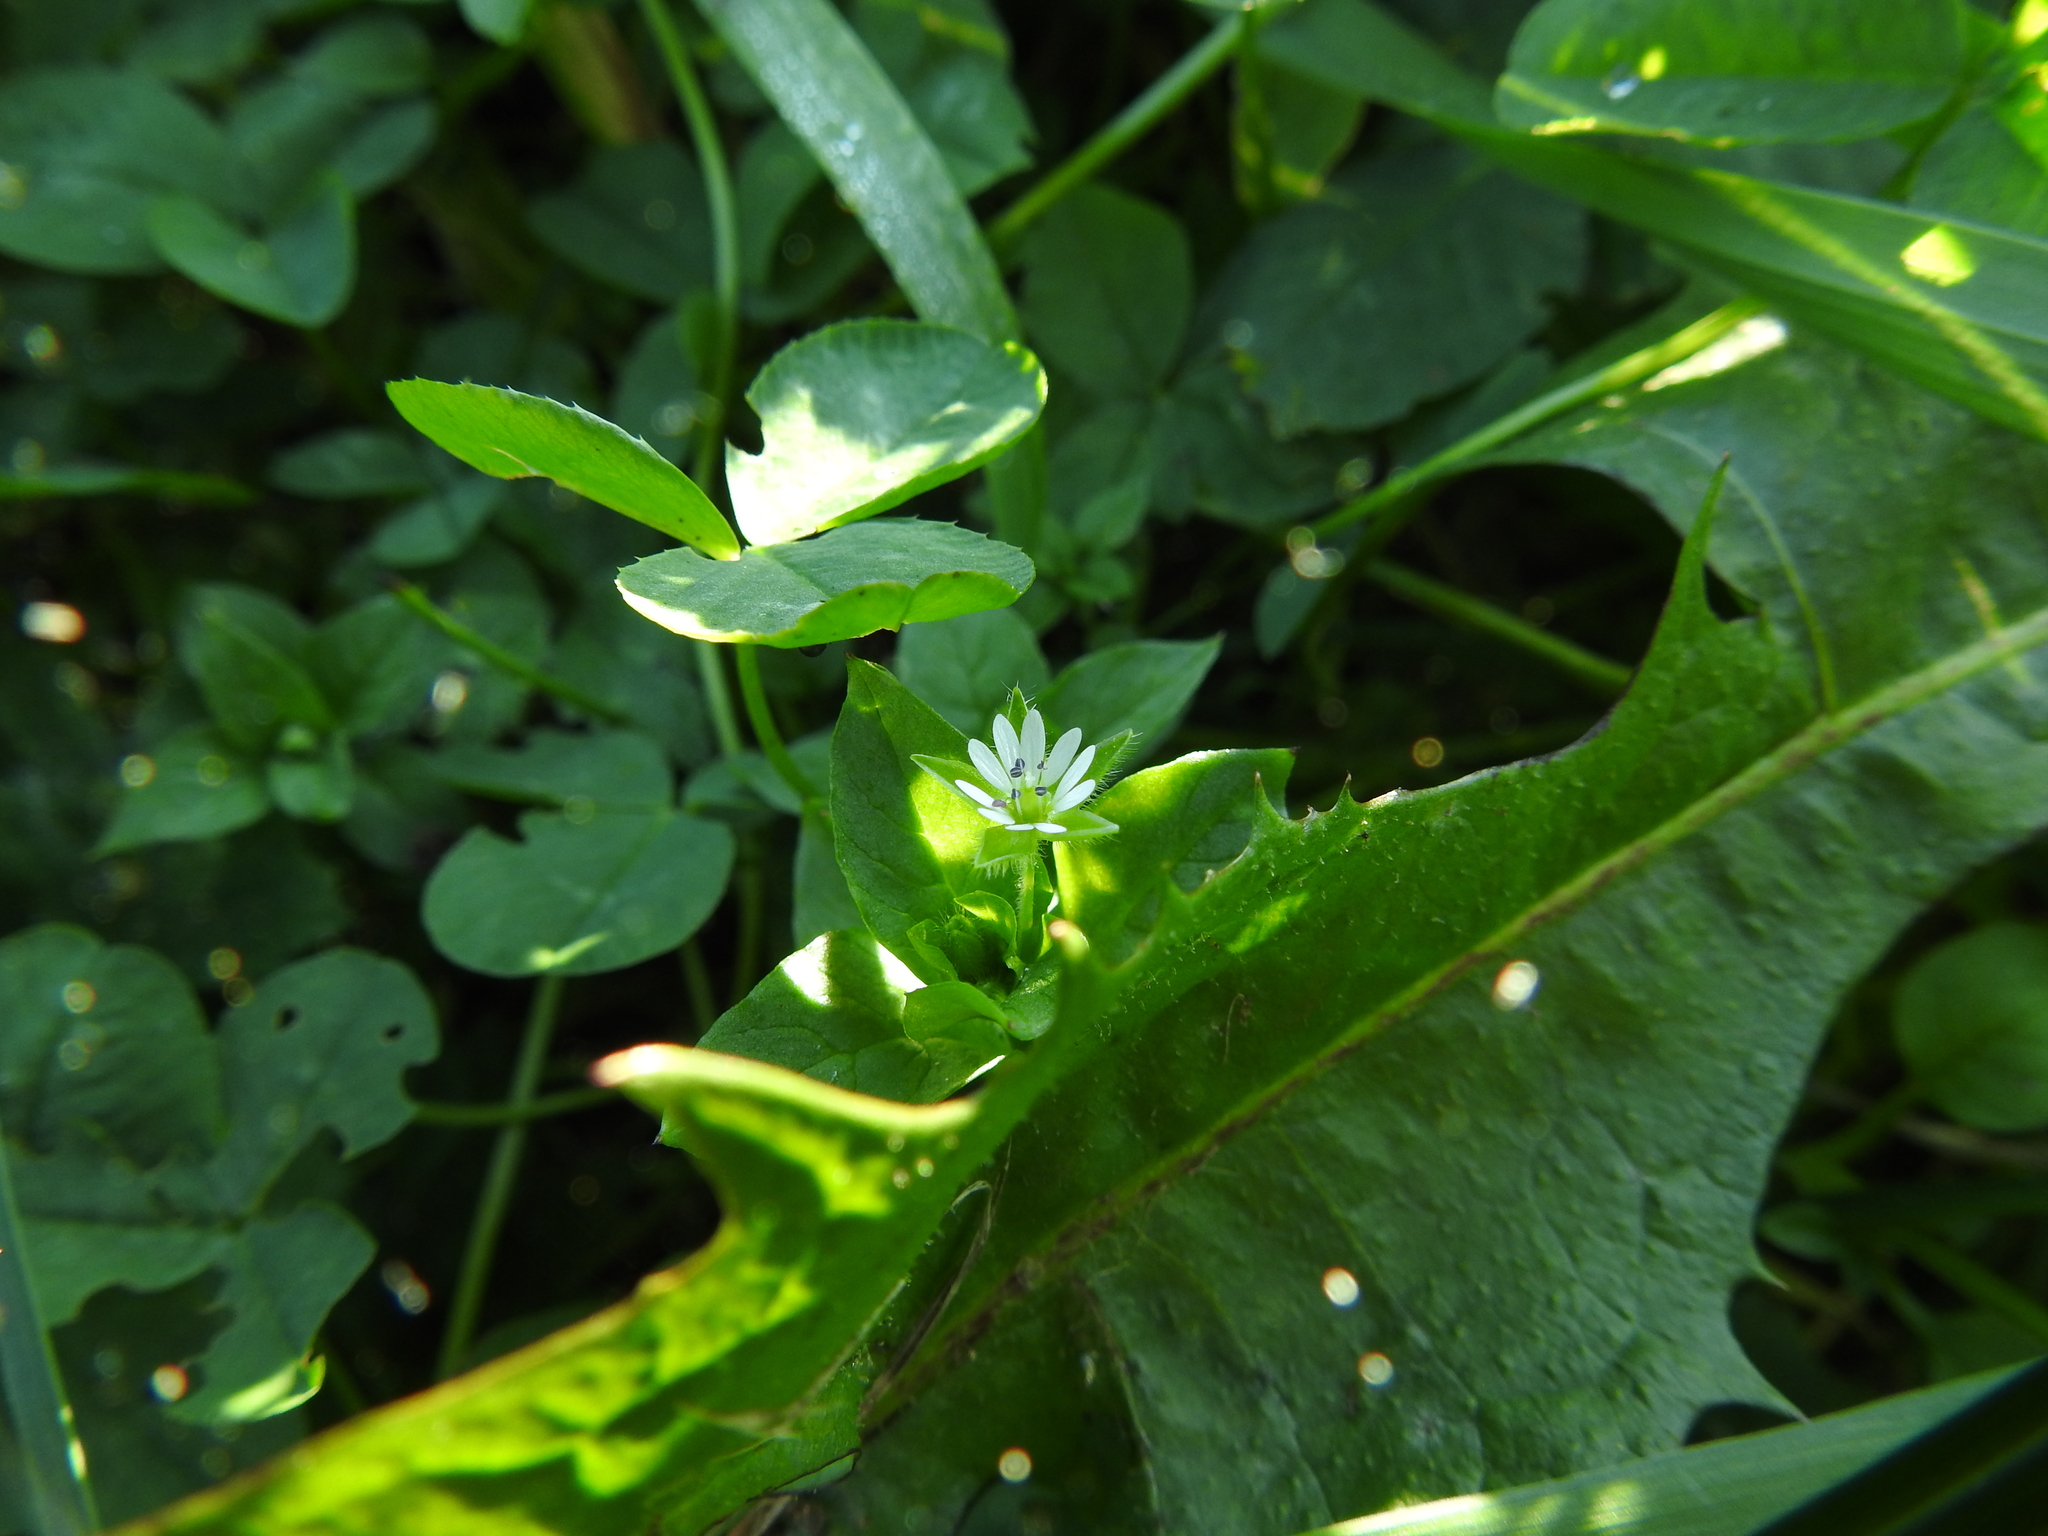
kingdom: Plantae
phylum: Tracheophyta
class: Magnoliopsida
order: Caryophyllales
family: Caryophyllaceae
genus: Stellaria
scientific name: Stellaria media
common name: Common chickweed
